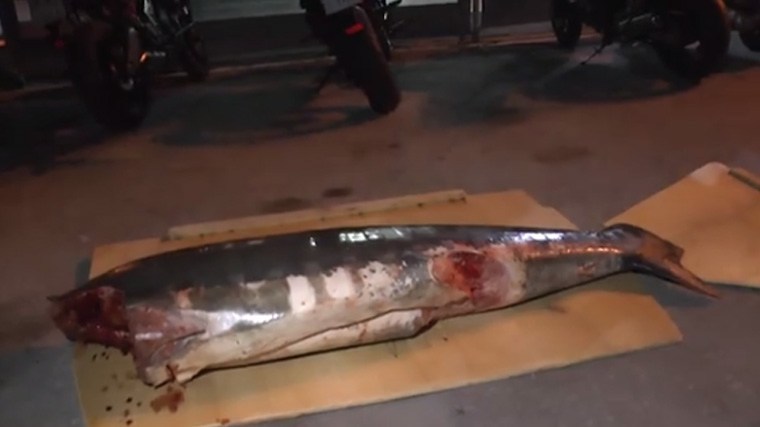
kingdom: Animalia
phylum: Chordata
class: Elasmobranchii
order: Lamniformes
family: Alopiidae
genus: Alopias
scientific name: Alopias vulpinus
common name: Thresher shark
